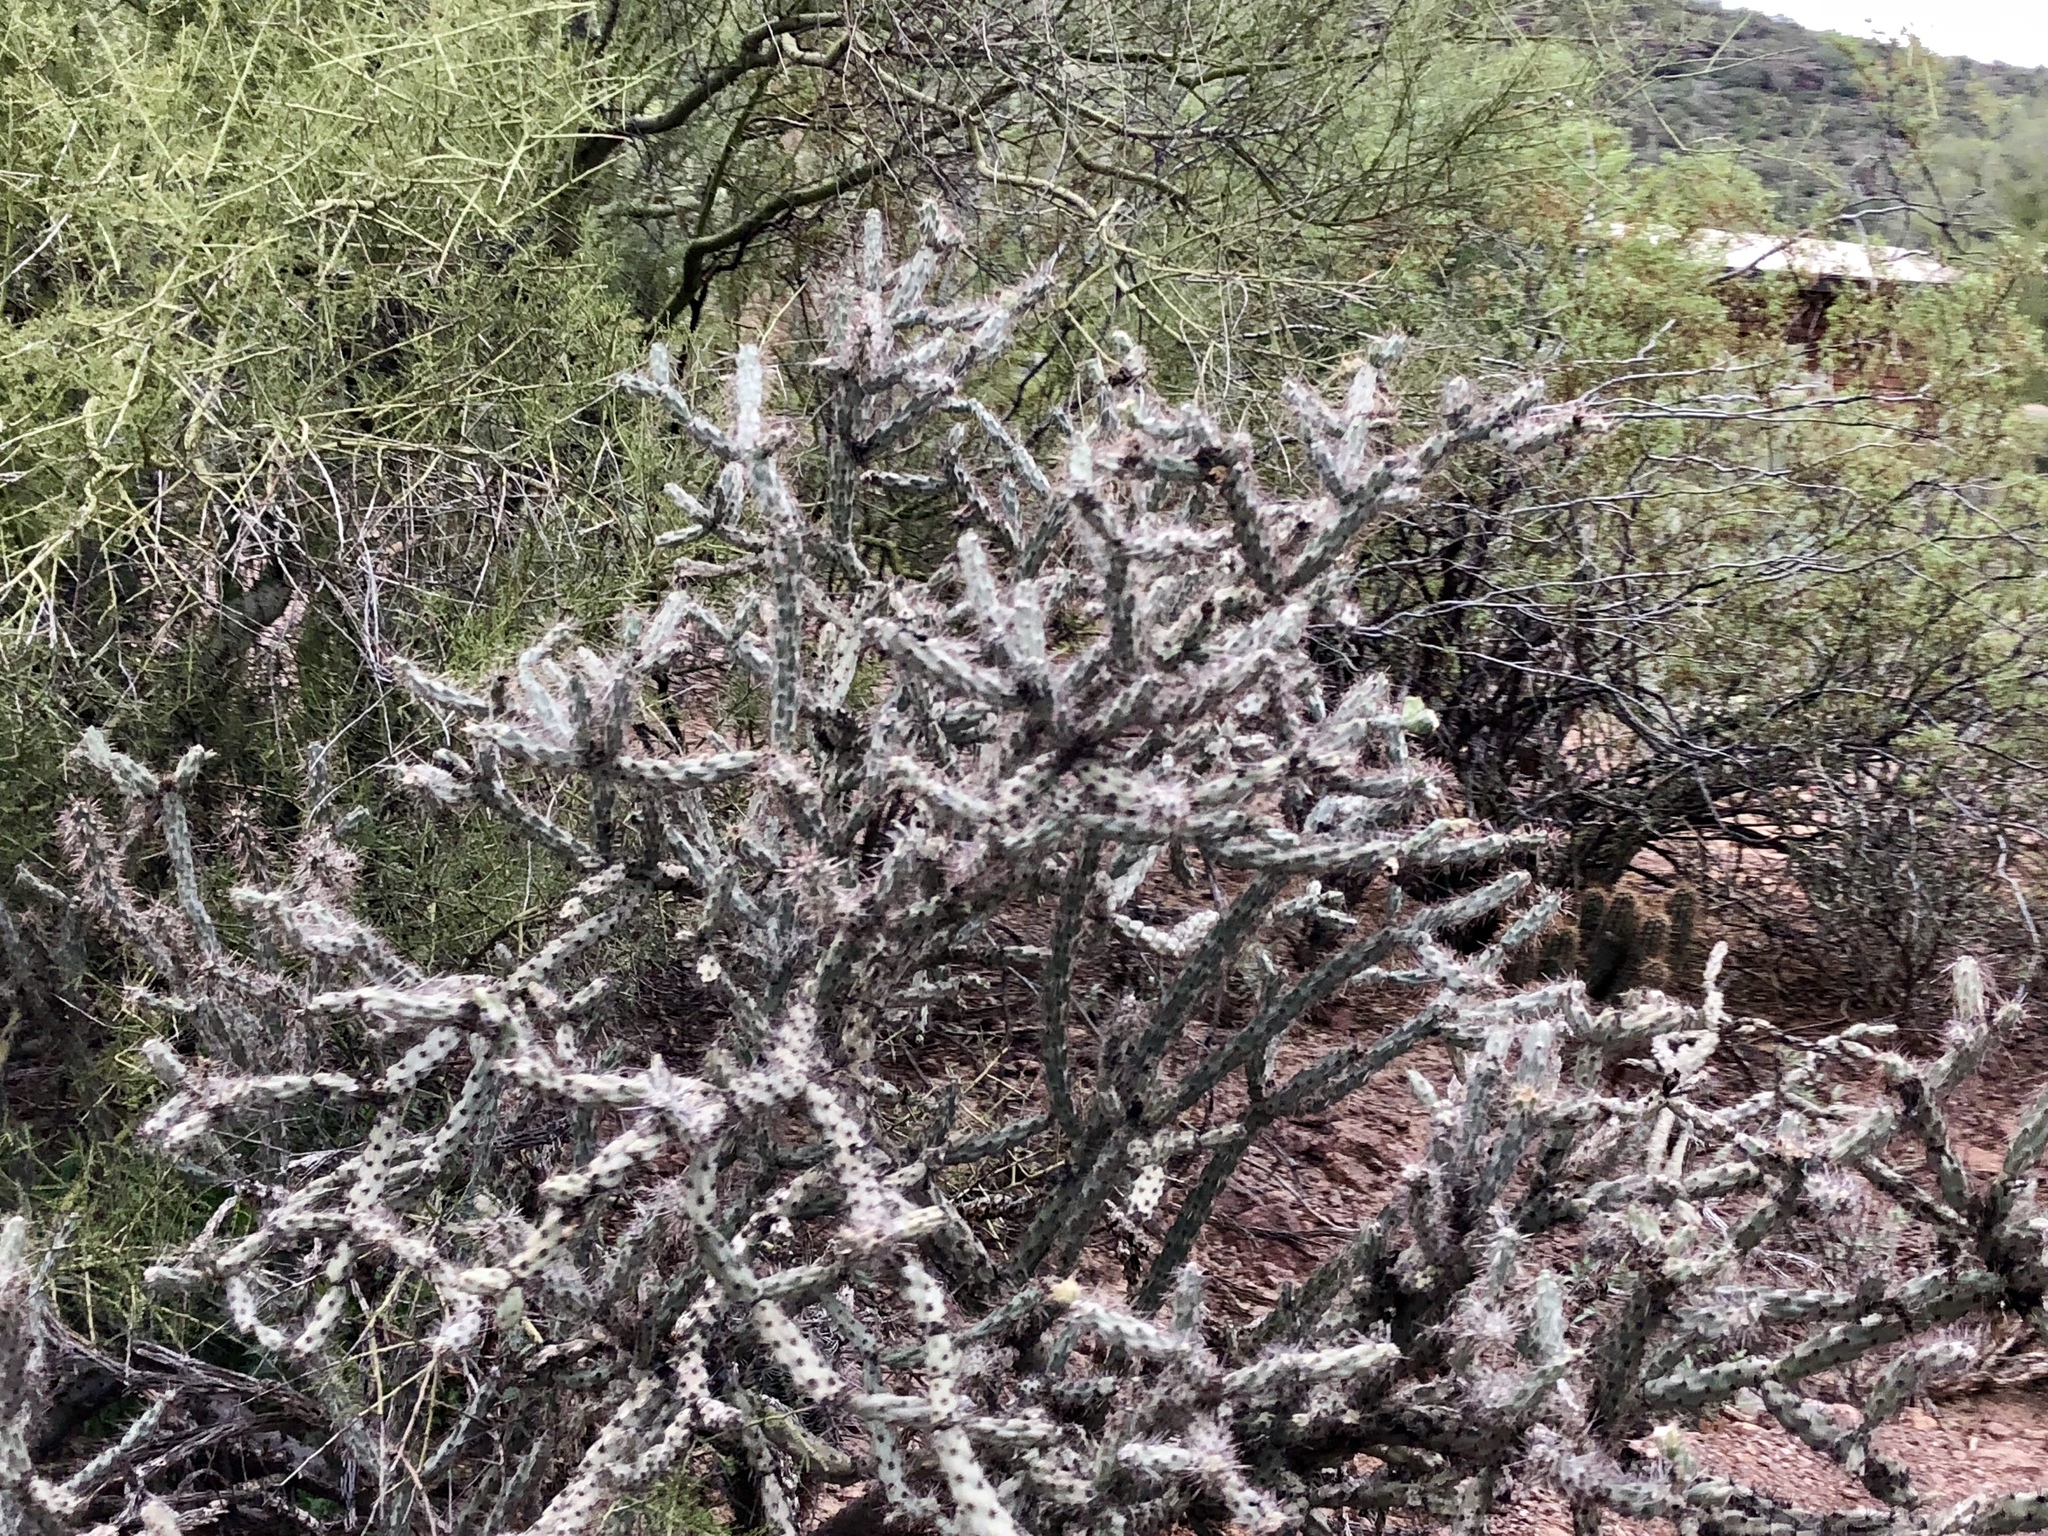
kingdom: Plantae
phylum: Tracheophyta
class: Magnoliopsida
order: Caryophyllales
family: Cactaceae
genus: Cylindropuntia
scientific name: Cylindropuntia acanthocarpa
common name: Buckhorn cholla
